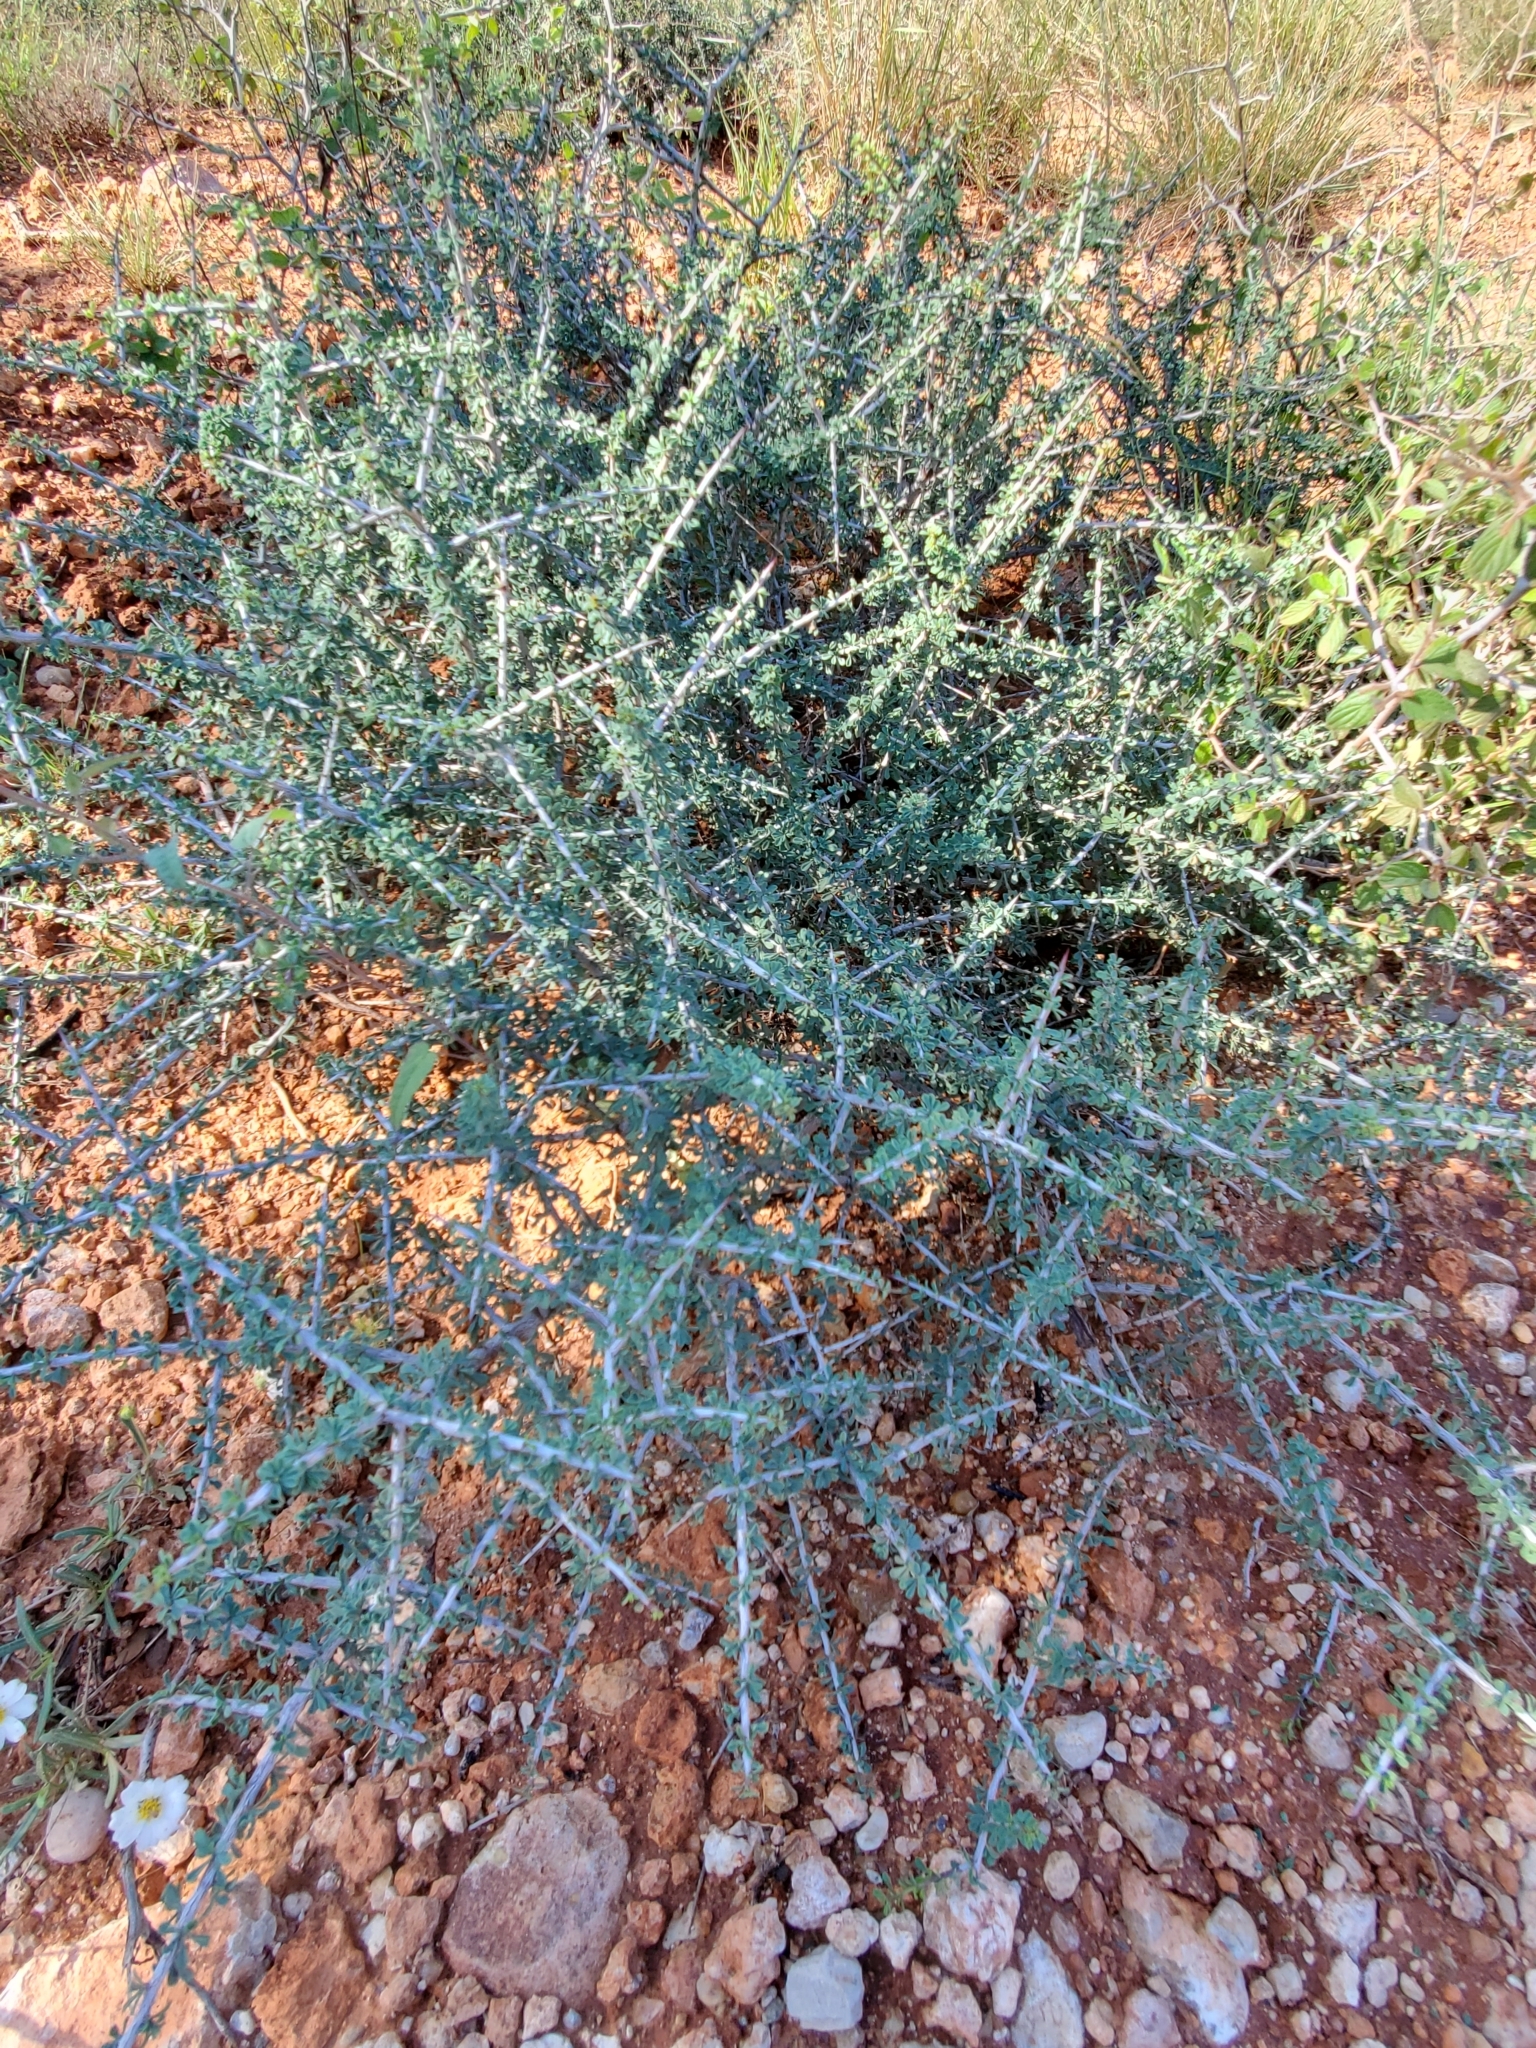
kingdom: Plantae
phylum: Tracheophyta
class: Magnoliopsida
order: Rosales
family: Rhamnaceae
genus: Condalia
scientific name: Condalia spathulata
